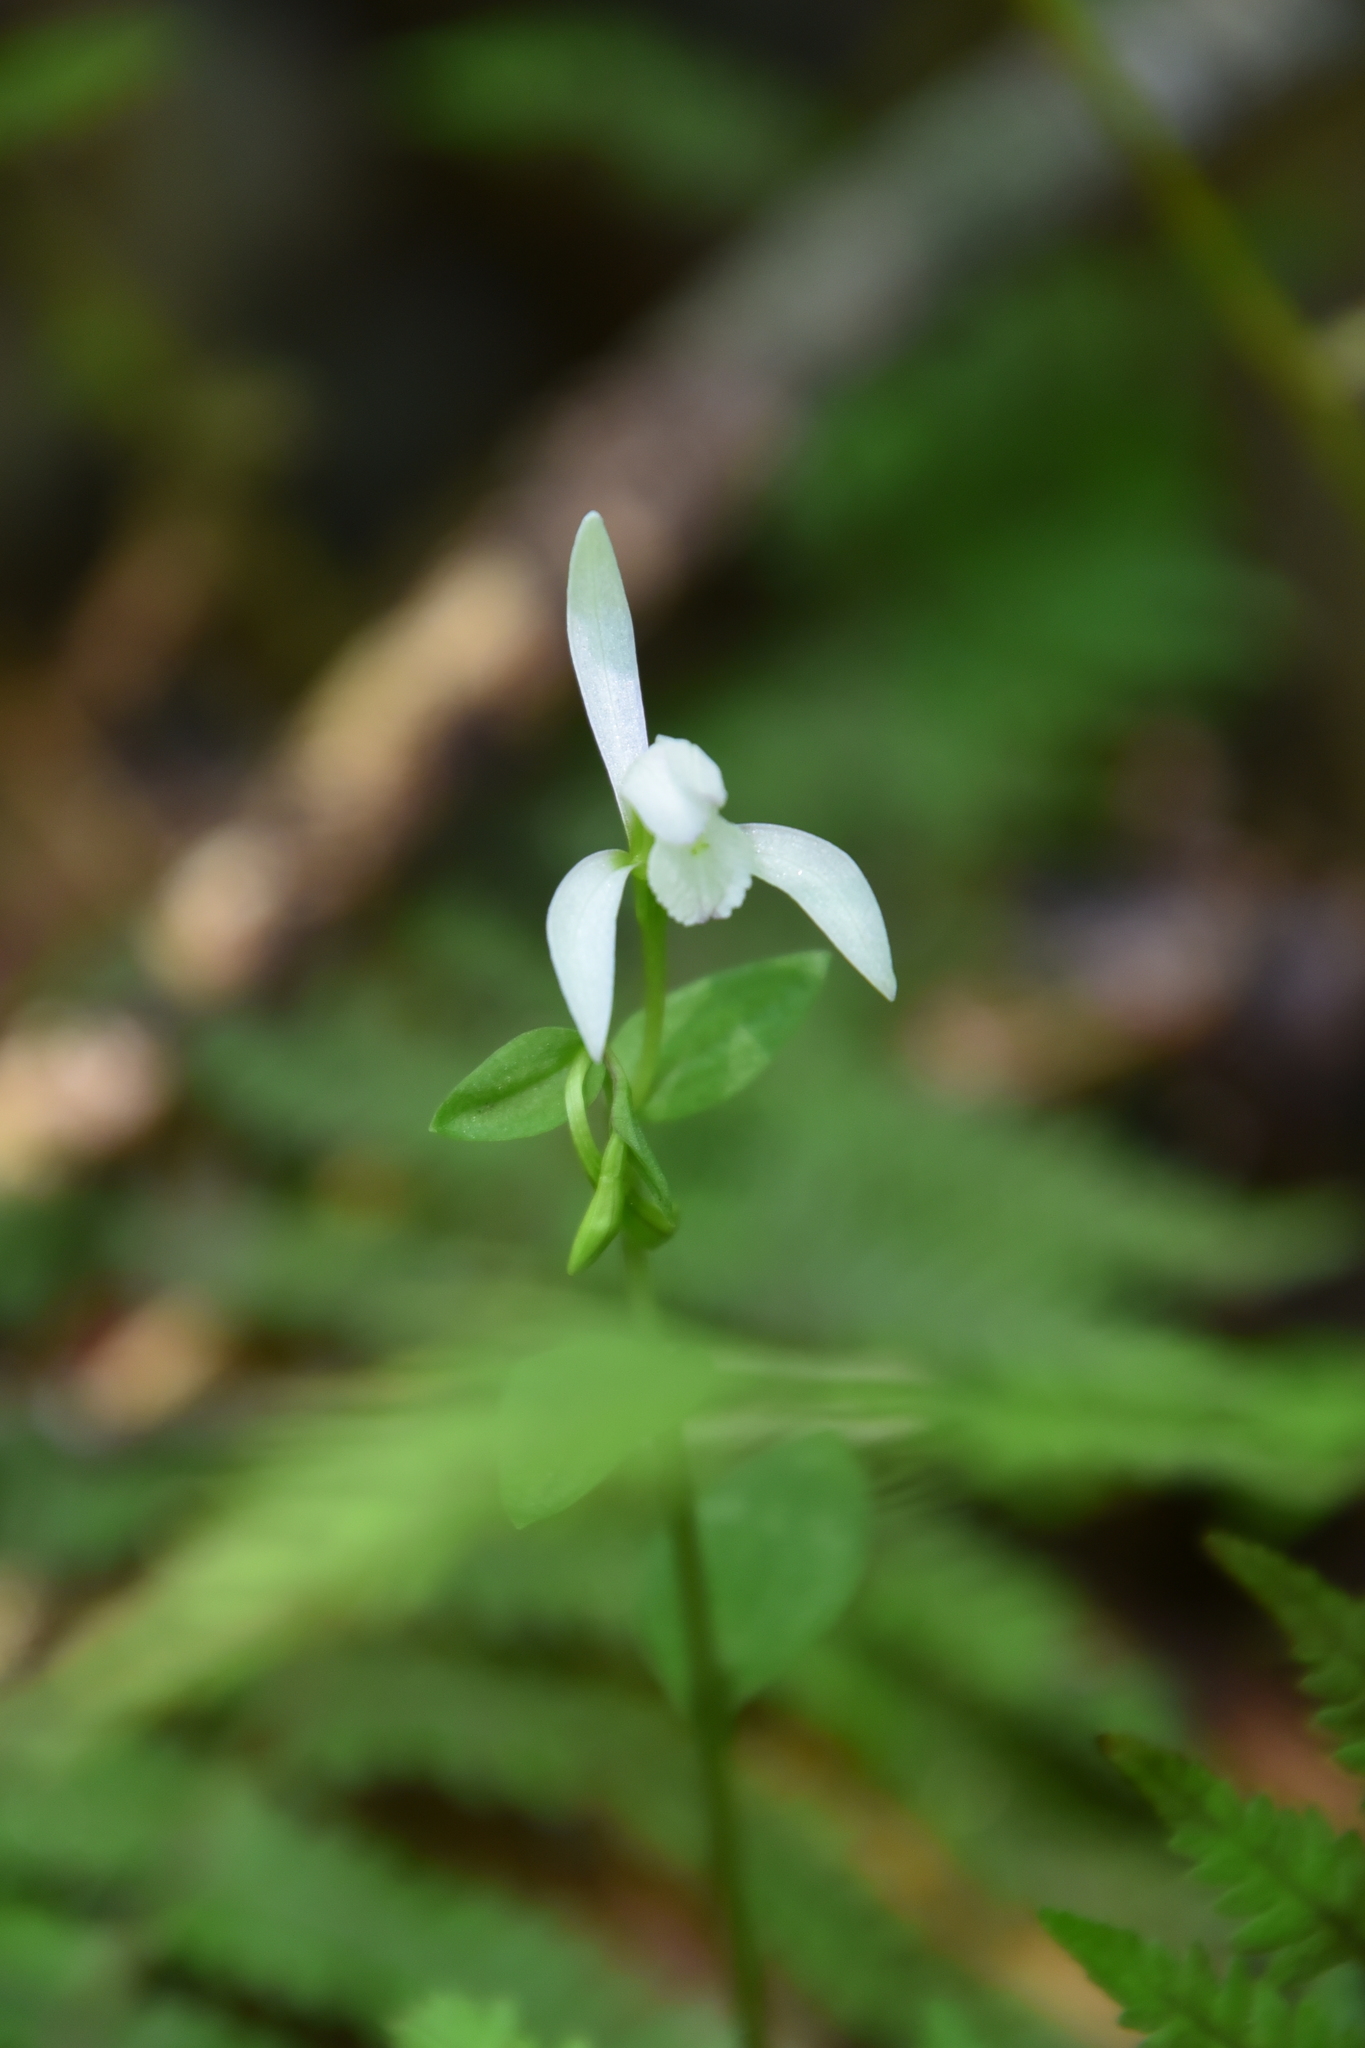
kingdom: Plantae
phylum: Tracheophyta
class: Liliopsida
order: Asparagales
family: Orchidaceae
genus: Triphora
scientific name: Triphora trianthophoros
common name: Three birds orchid
